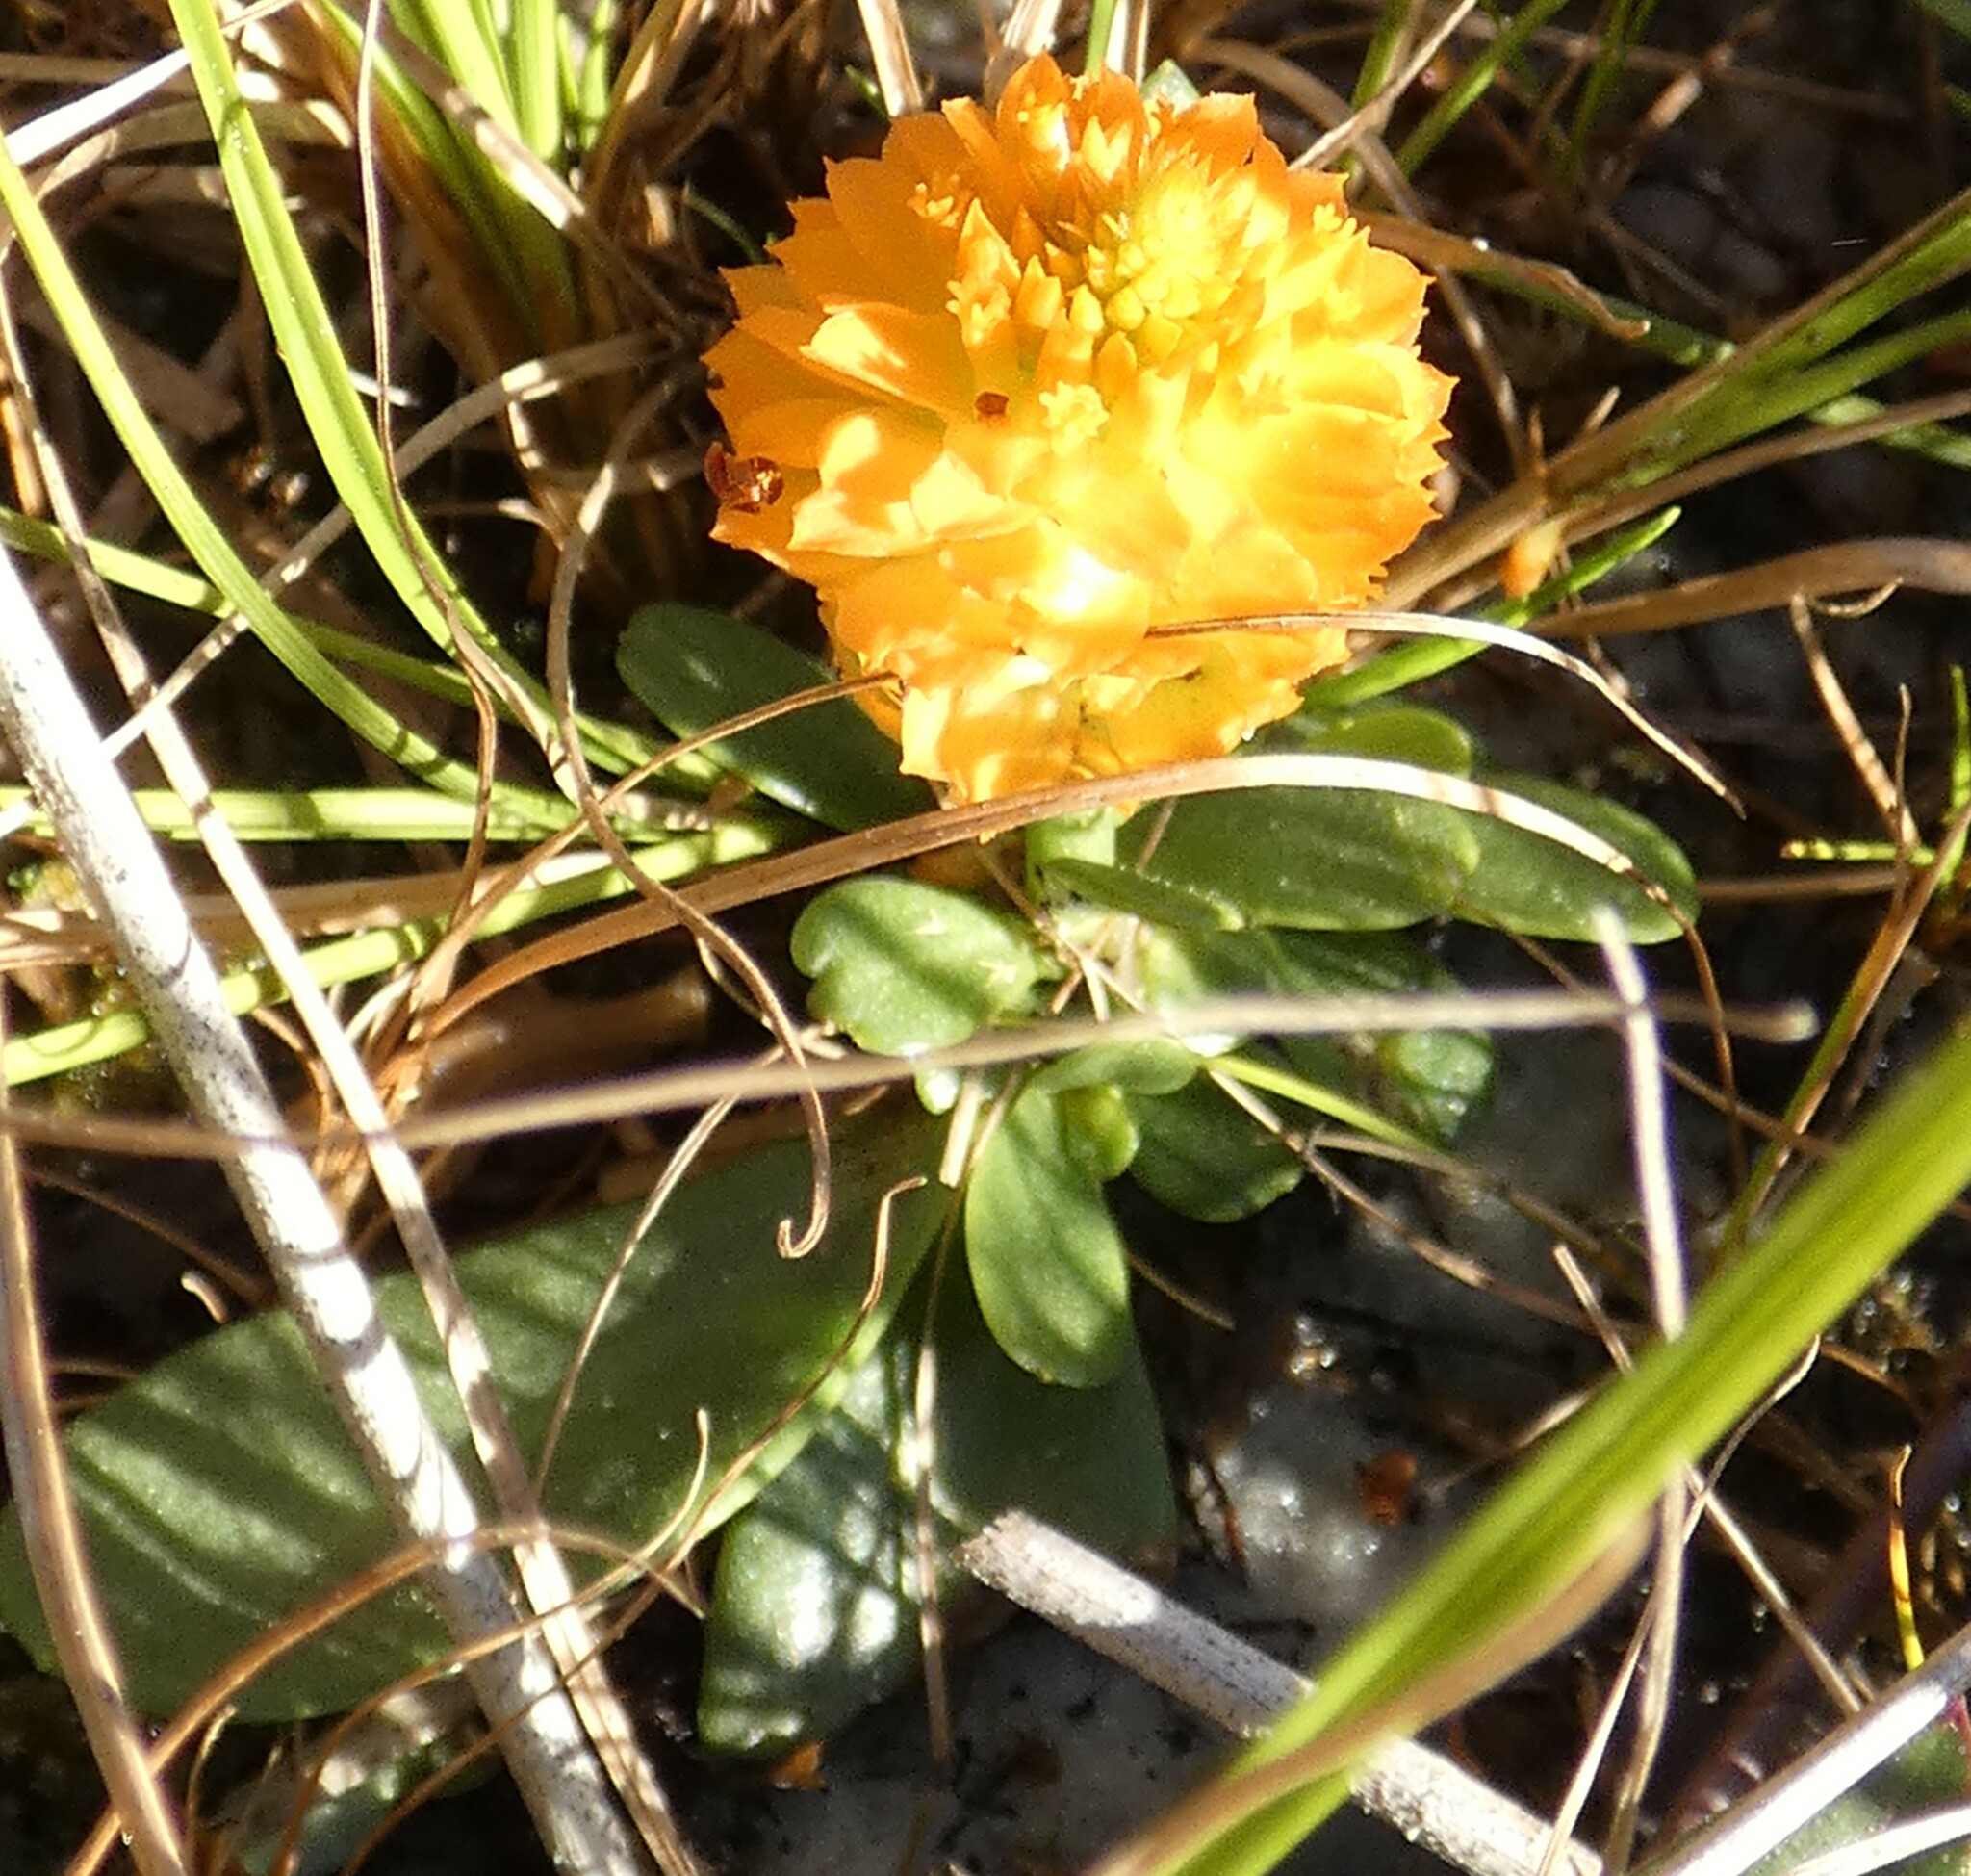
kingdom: Plantae
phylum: Tracheophyta
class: Magnoliopsida
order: Fabales
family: Polygalaceae
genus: Polygala
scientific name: Polygala lutea
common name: Orange milkwort
